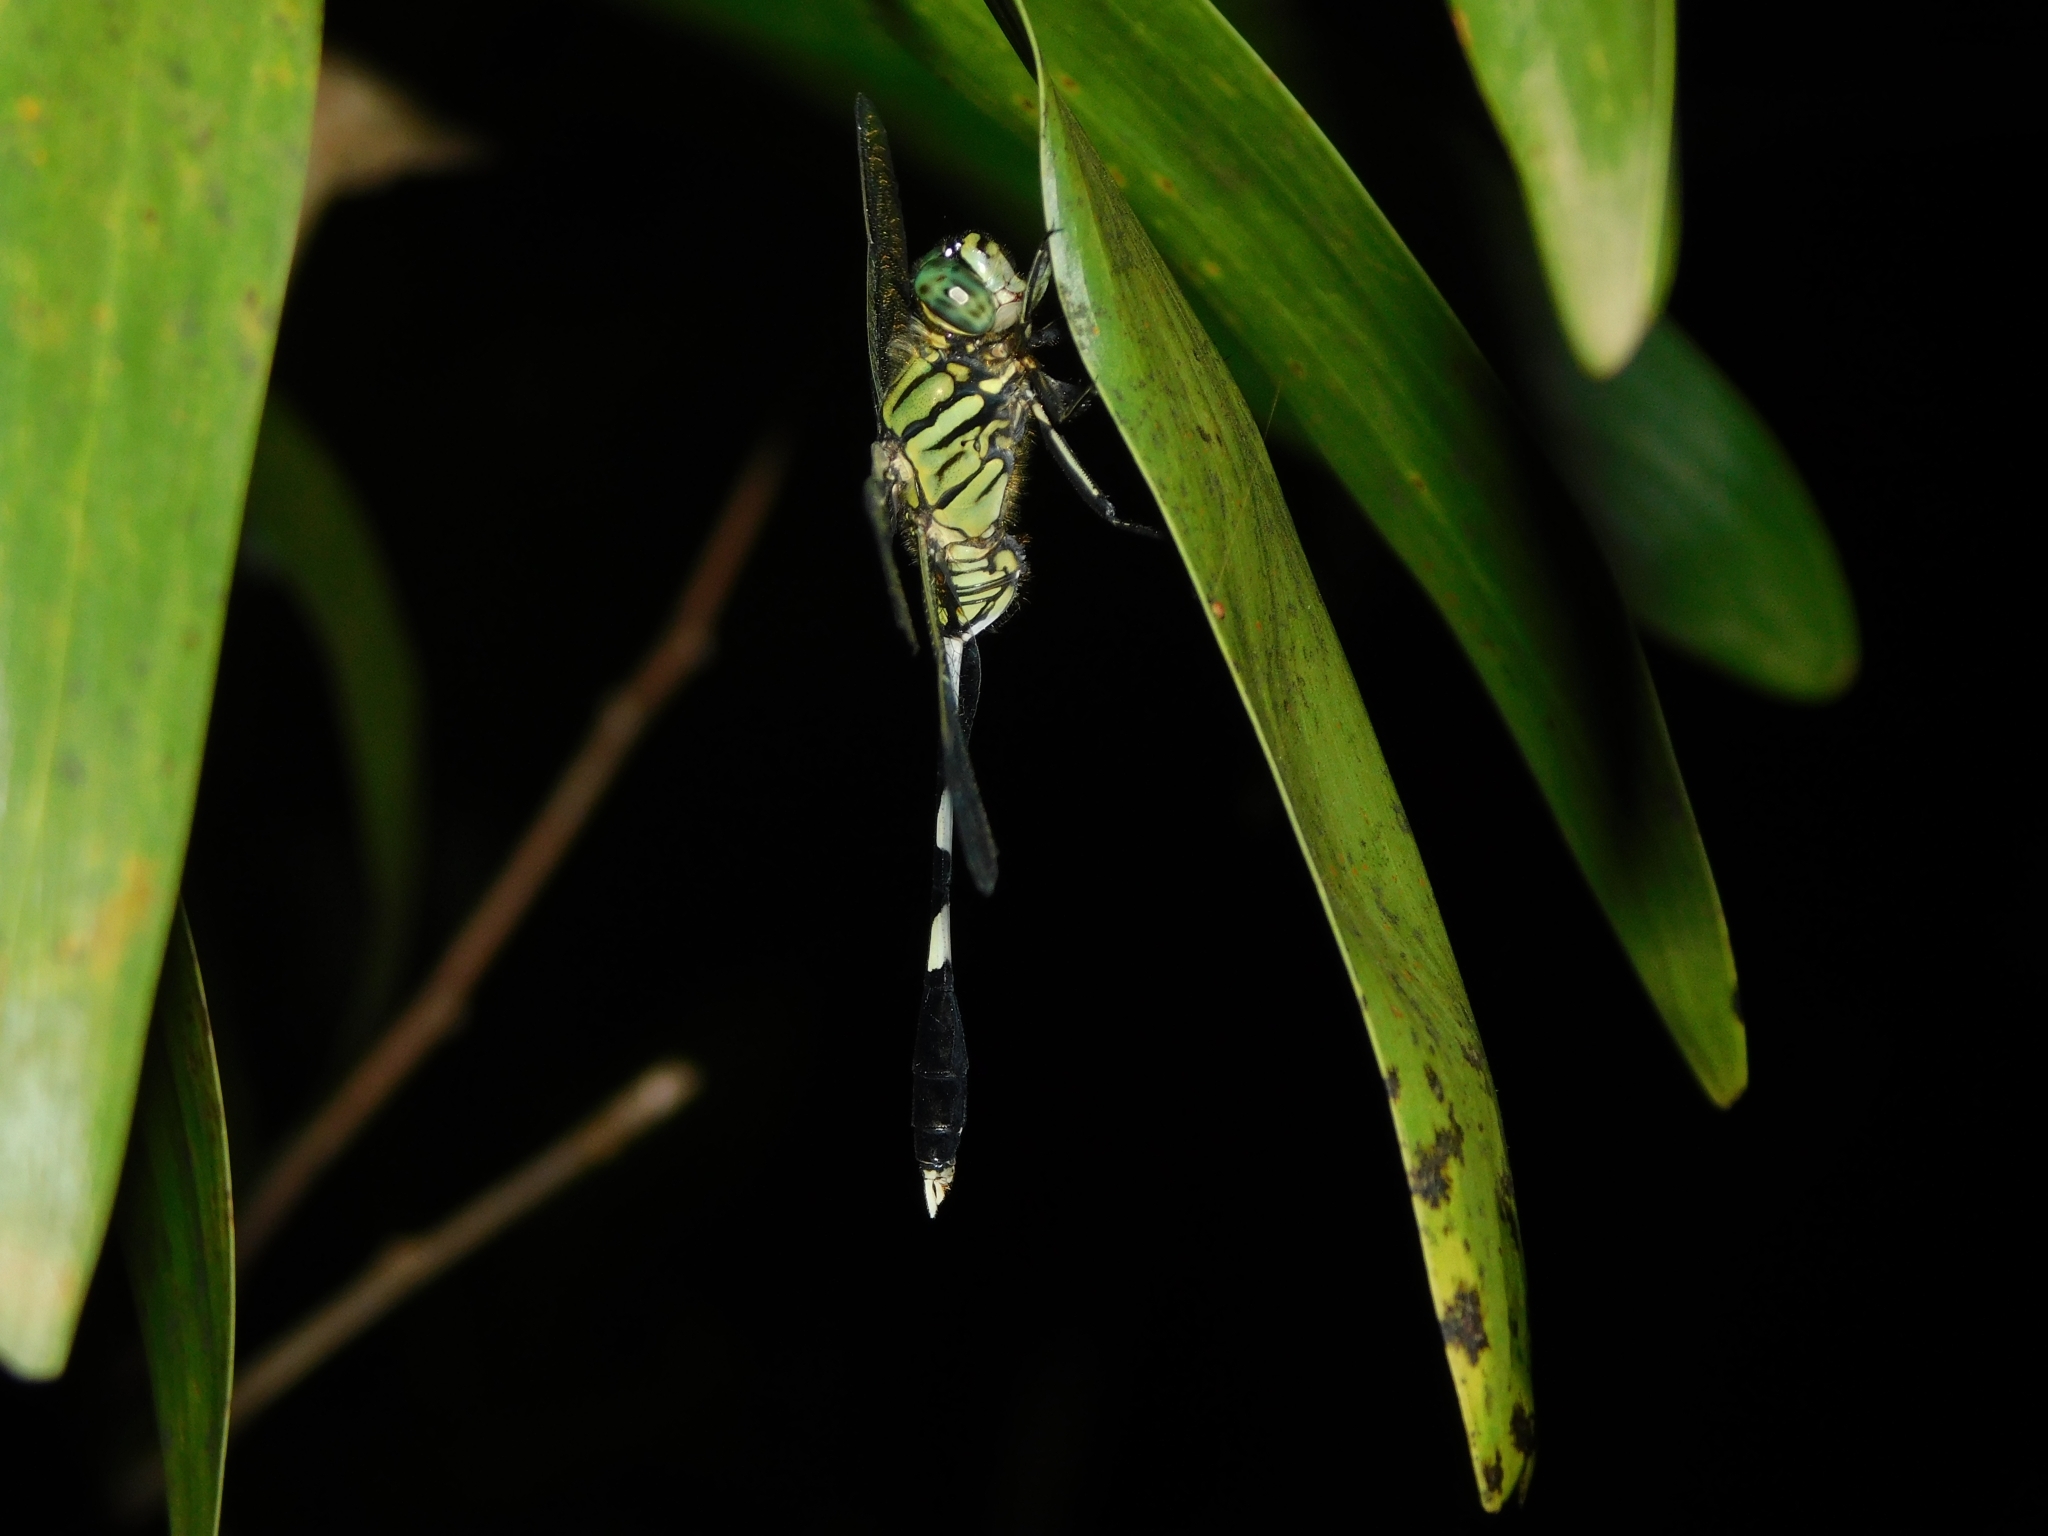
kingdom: Animalia
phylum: Arthropoda
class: Insecta
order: Odonata
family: Libellulidae
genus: Orthetrum
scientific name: Orthetrum sabina
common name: Slender skimmer
